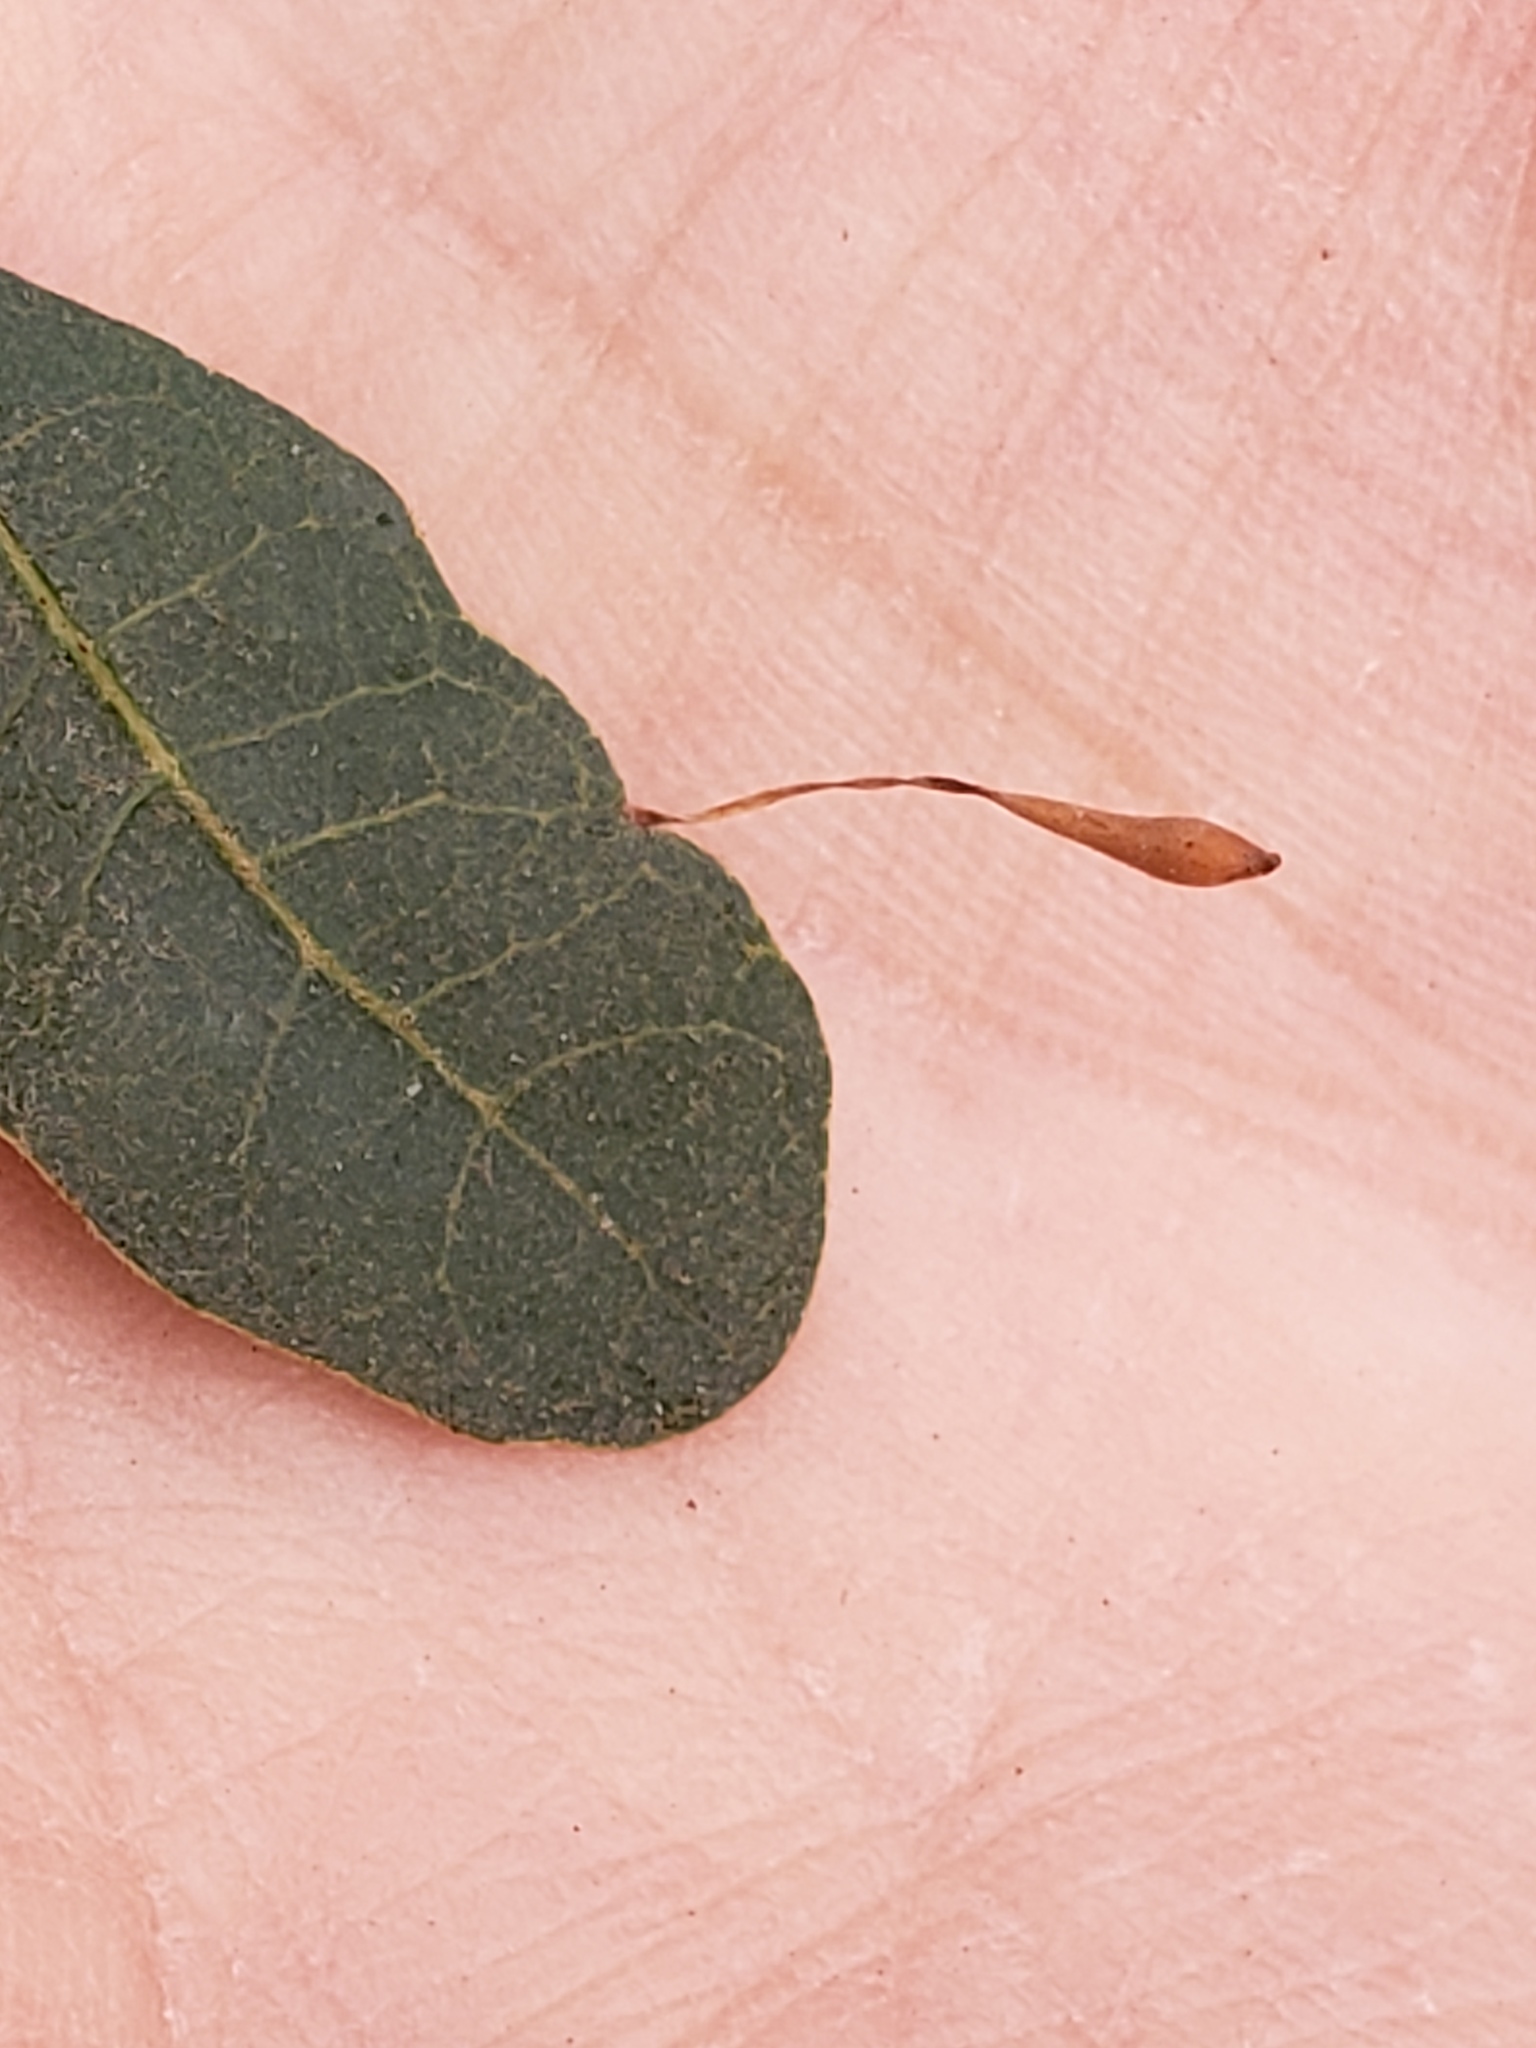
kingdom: Animalia
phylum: Arthropoda
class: Insecta
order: Hymenoptera
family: Cynipidae
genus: Andricus
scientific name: Andricus
